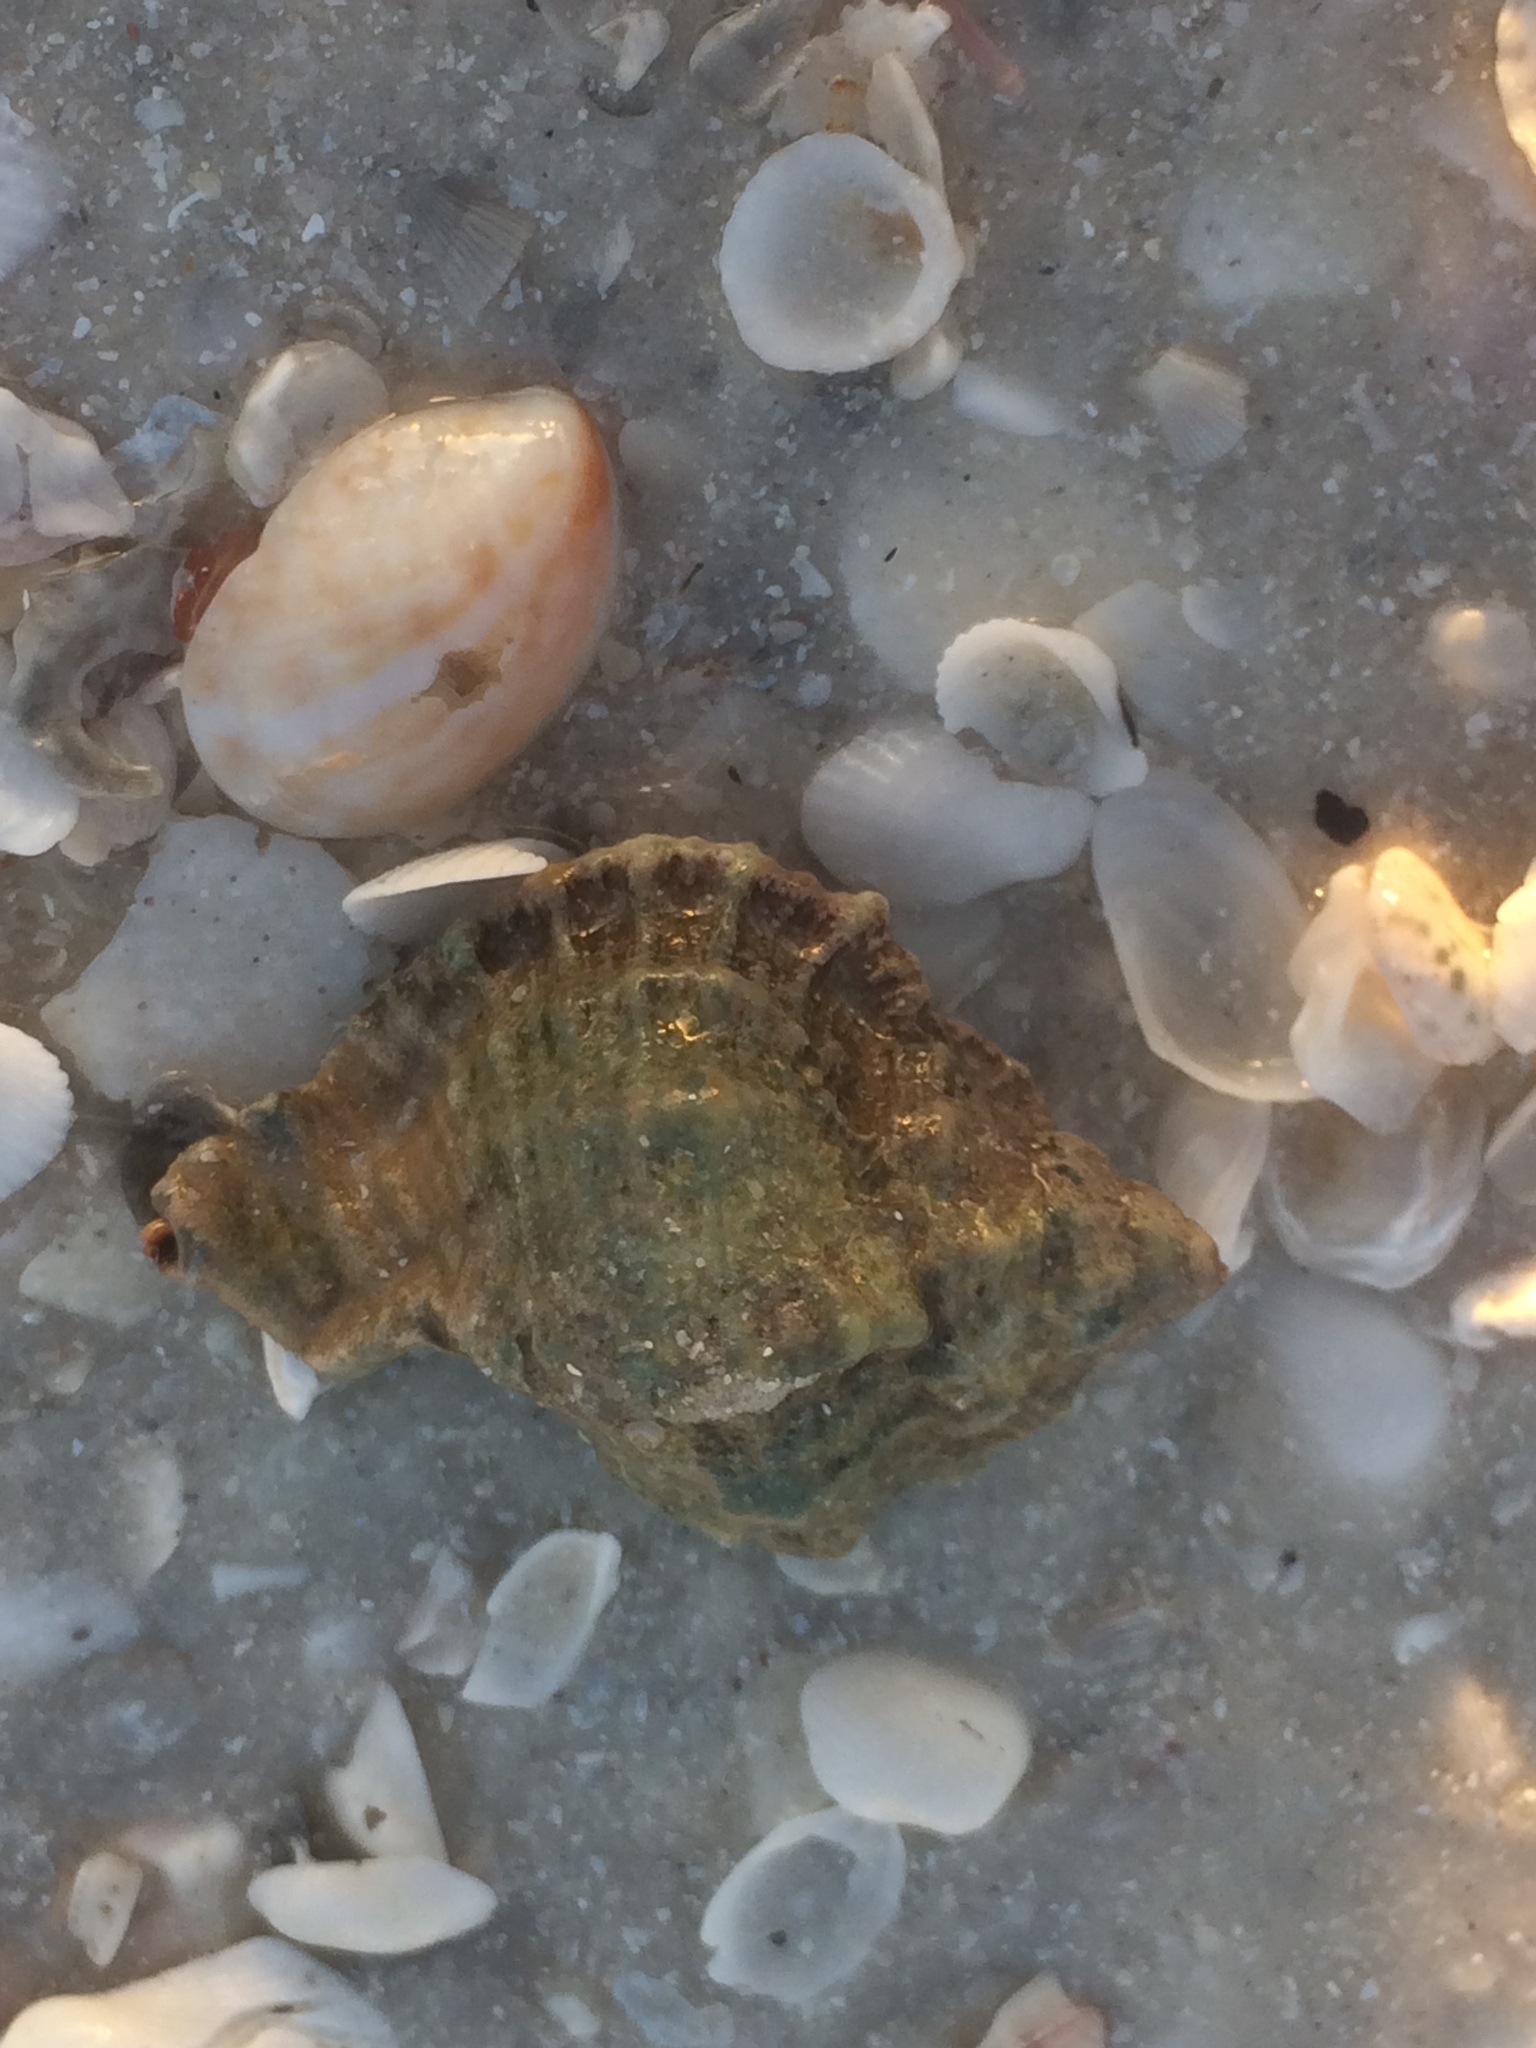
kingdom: Animalia
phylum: Mollusca
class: Gastropoda
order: Neogastropoda
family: Muricidae
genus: Phyllonotus
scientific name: Phyllonotus pomum
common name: Apple murex
